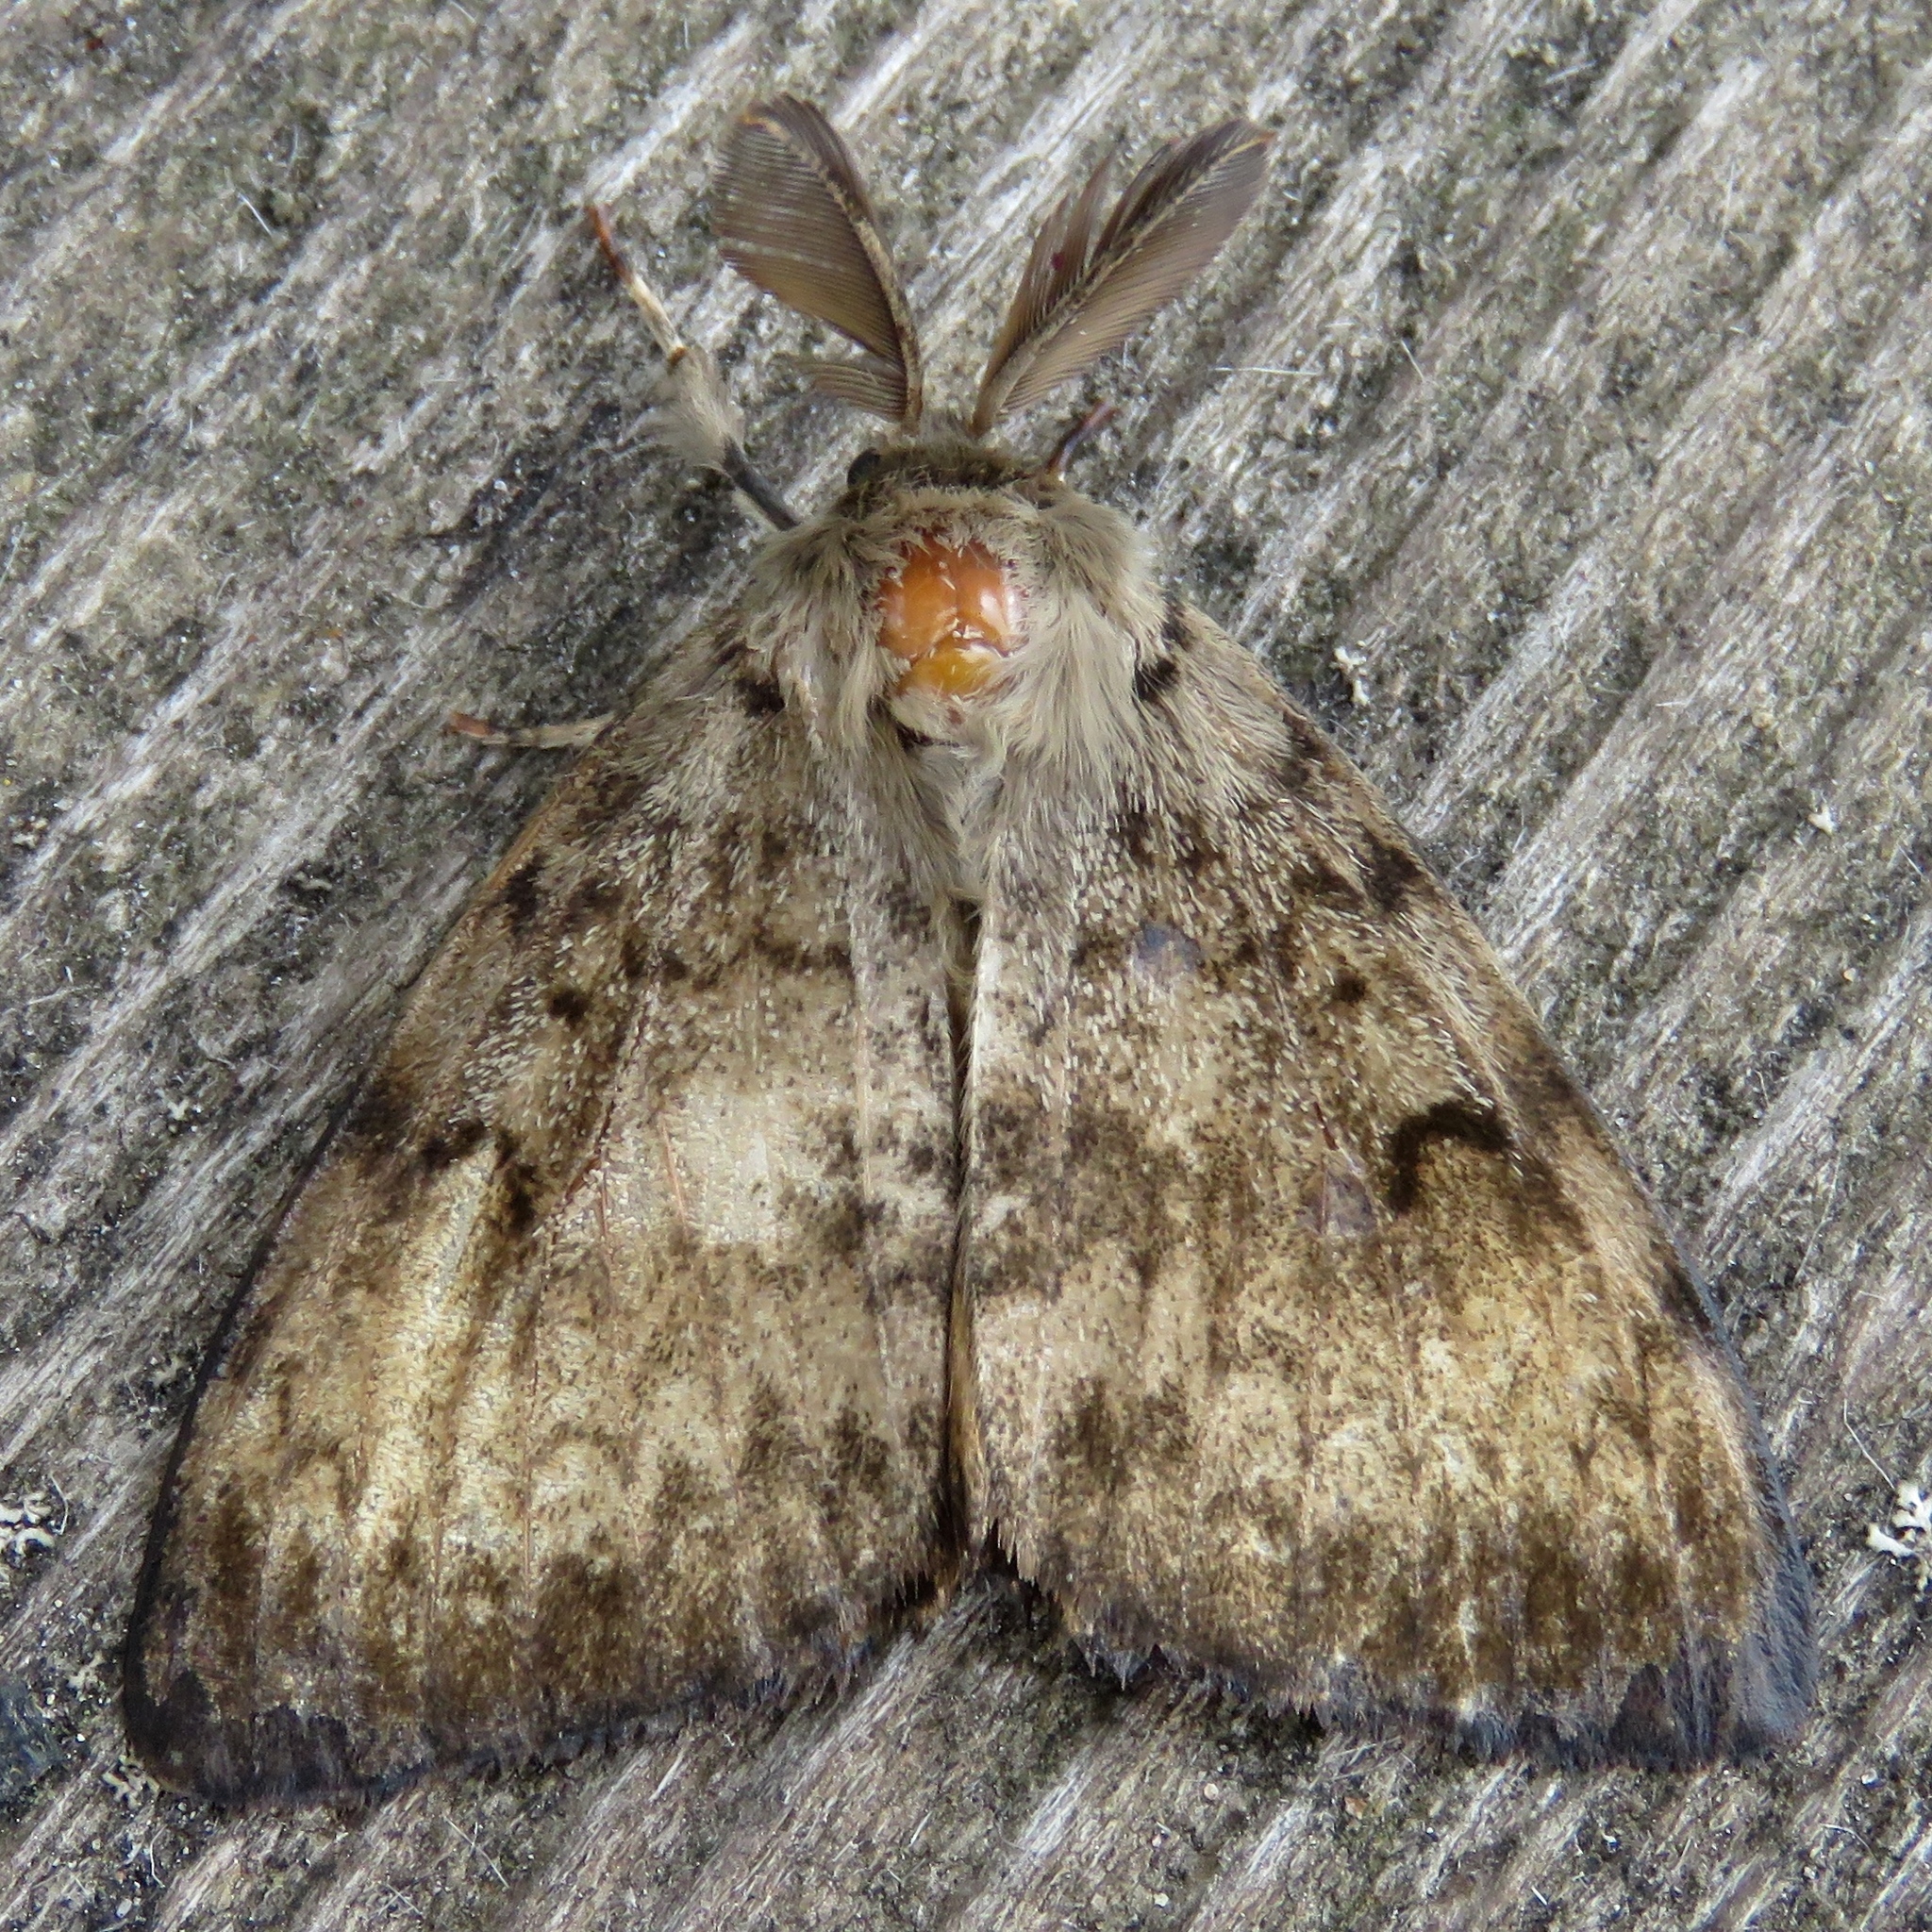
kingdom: Animalia
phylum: Arthropoda
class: Insecta
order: Lepidoptera
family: Erebidae
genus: Lymantria
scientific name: Lymantria dispar
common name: Gypsy moth
